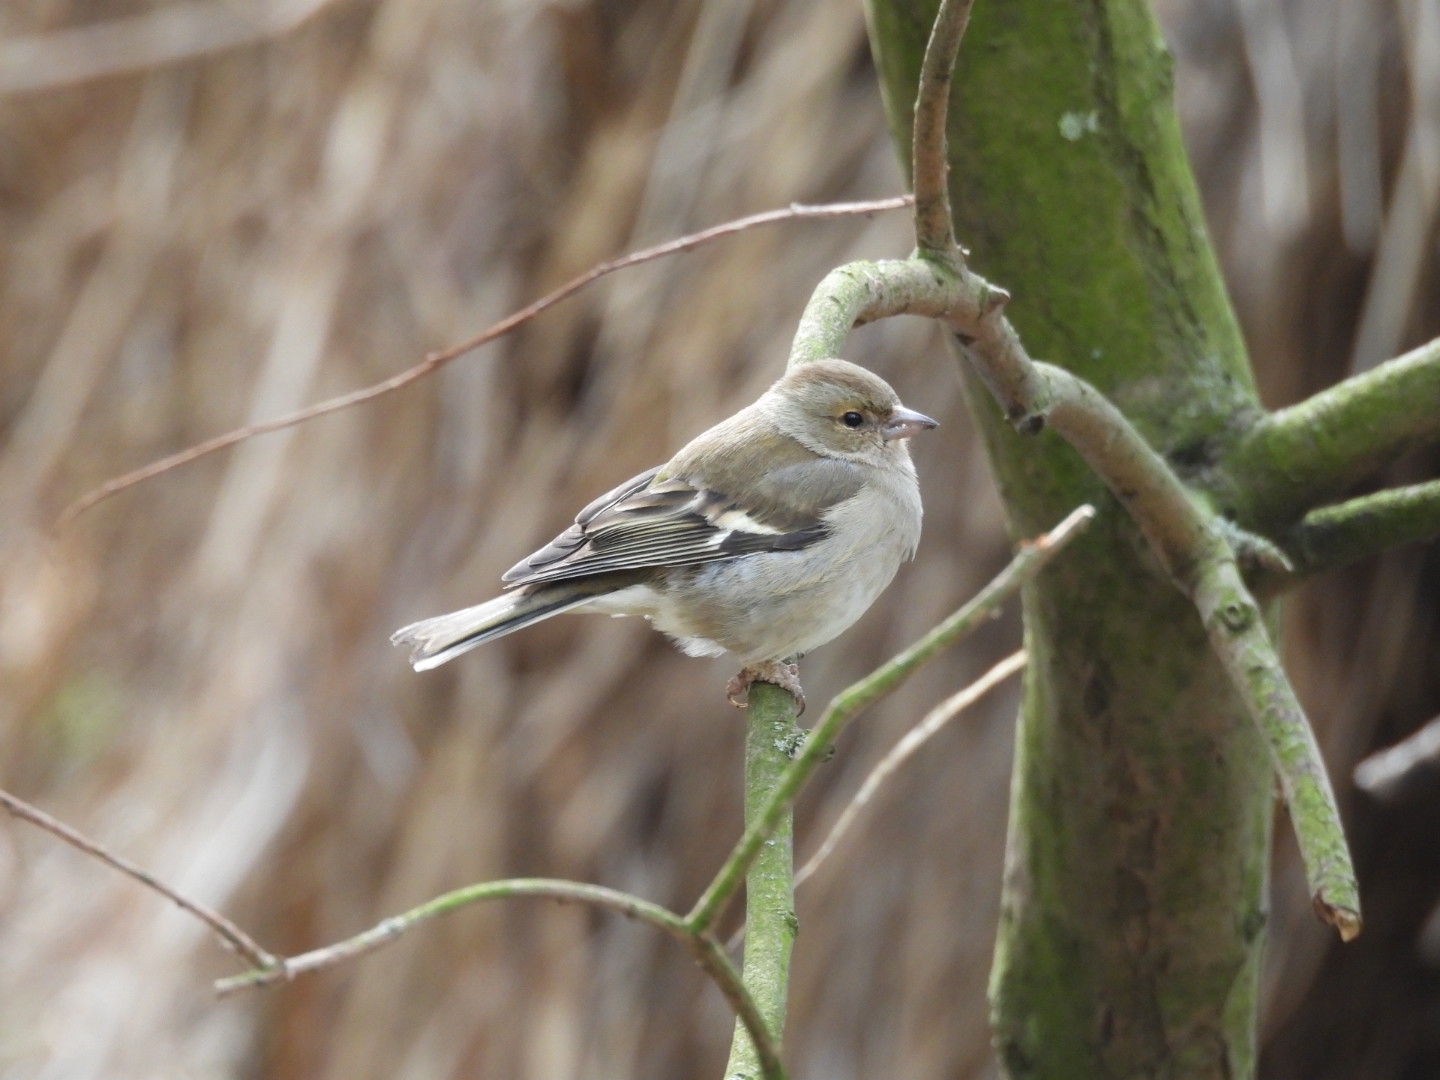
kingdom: Animalia
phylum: Chordata
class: Aves
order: Passeriformes
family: Fringillidae
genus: Fringilla
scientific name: Fringilla coelebs
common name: Common chaffinch
